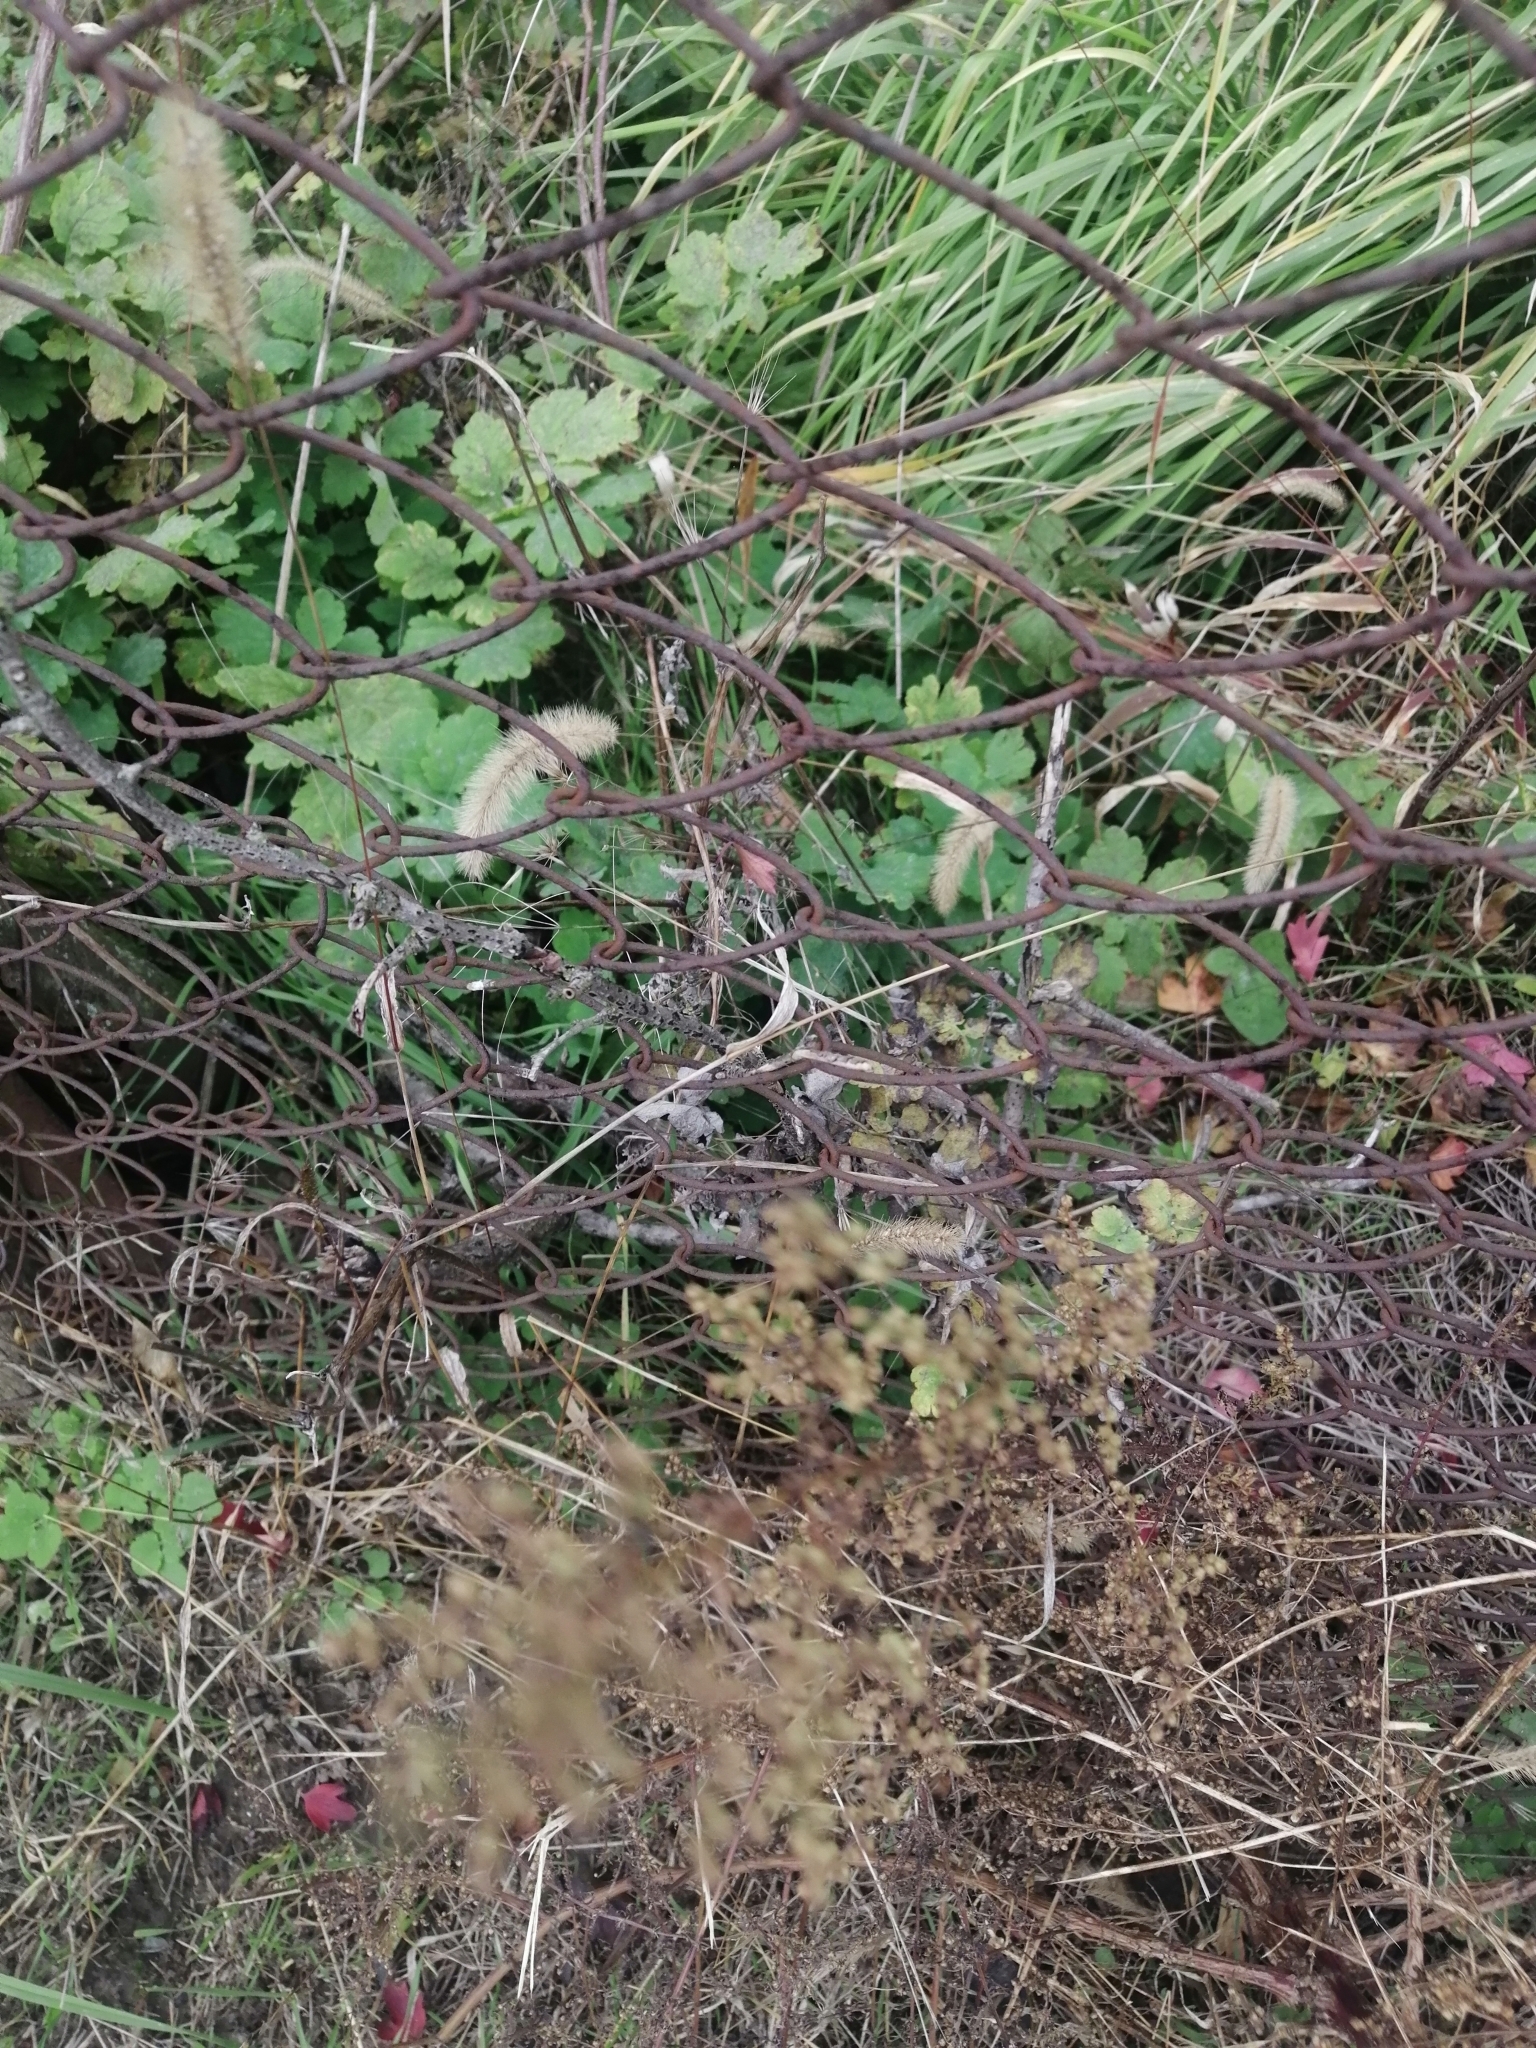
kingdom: Plantae
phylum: Tracheophyta
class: Magnoliopsida
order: Asterales
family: Asteraceae
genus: Artemisia
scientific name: Artemisia annua
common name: Sweet sagewort
